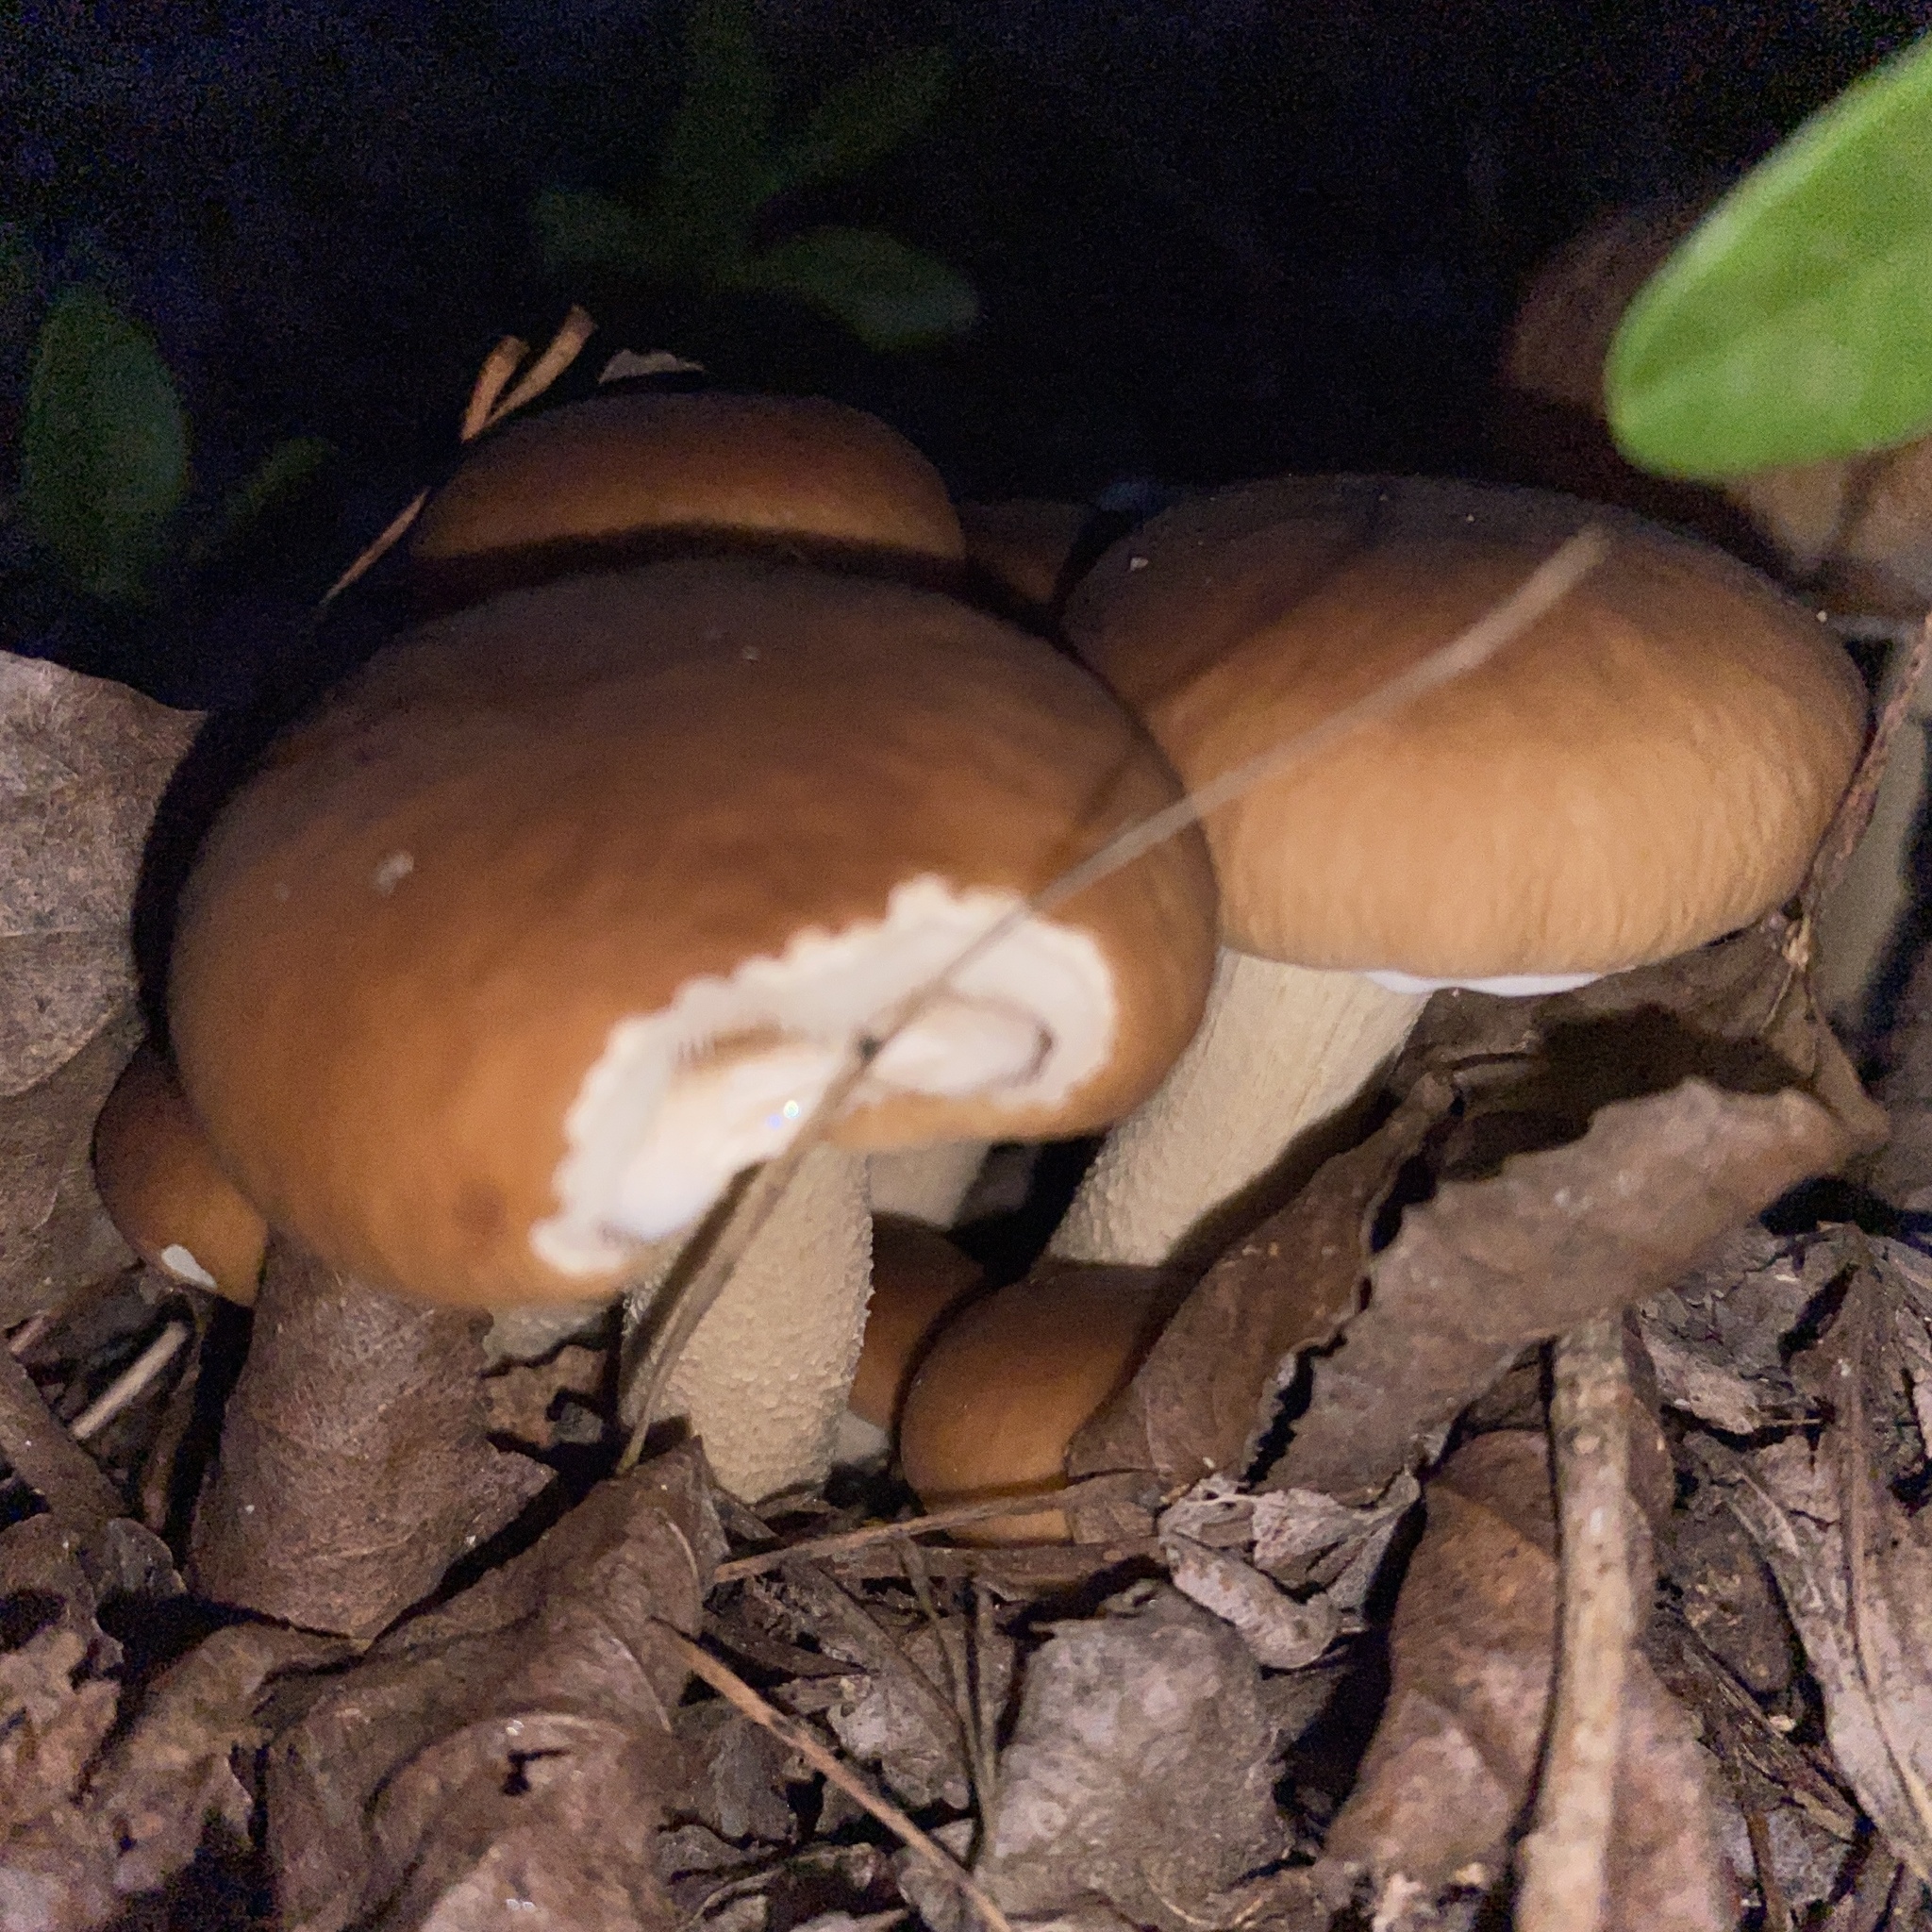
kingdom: Fungi
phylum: Basidiomycota
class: Agaricomycetes
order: Agaricales
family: Tubariaceae
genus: Cyclocybe
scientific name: Cyclocybe cylindracea
